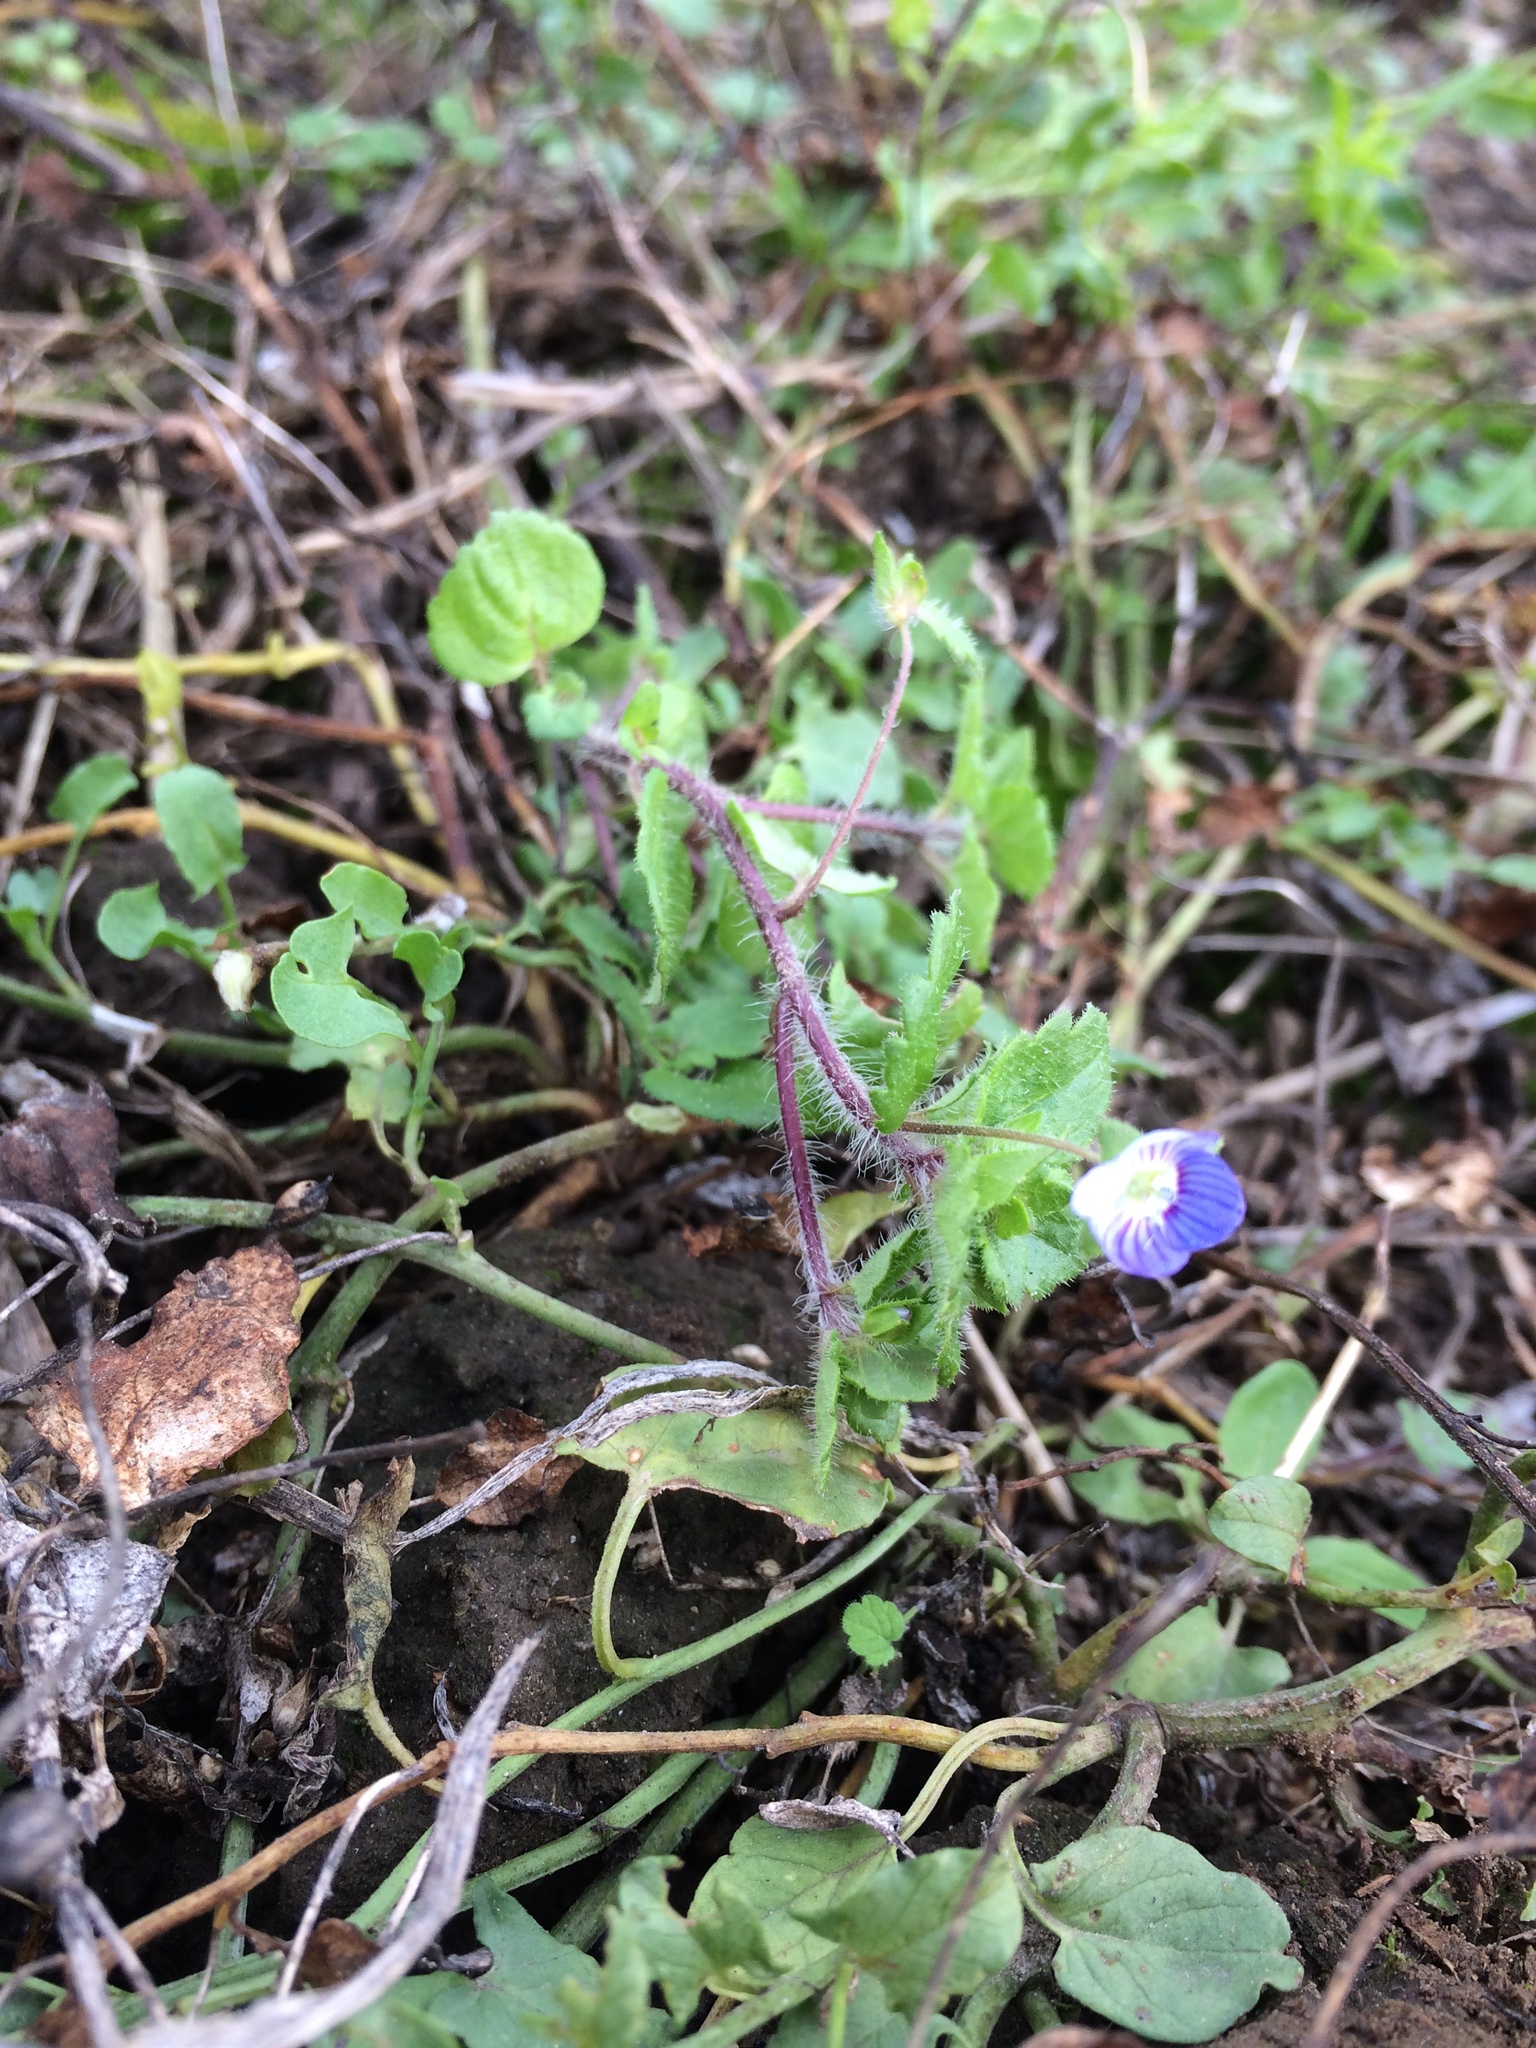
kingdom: Plantae
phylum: Tracheophyta
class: Magnoliopsida
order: Lamiales
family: Plantaginaceae
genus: Veronica
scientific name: Veronica persica
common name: Common field-speedwell
